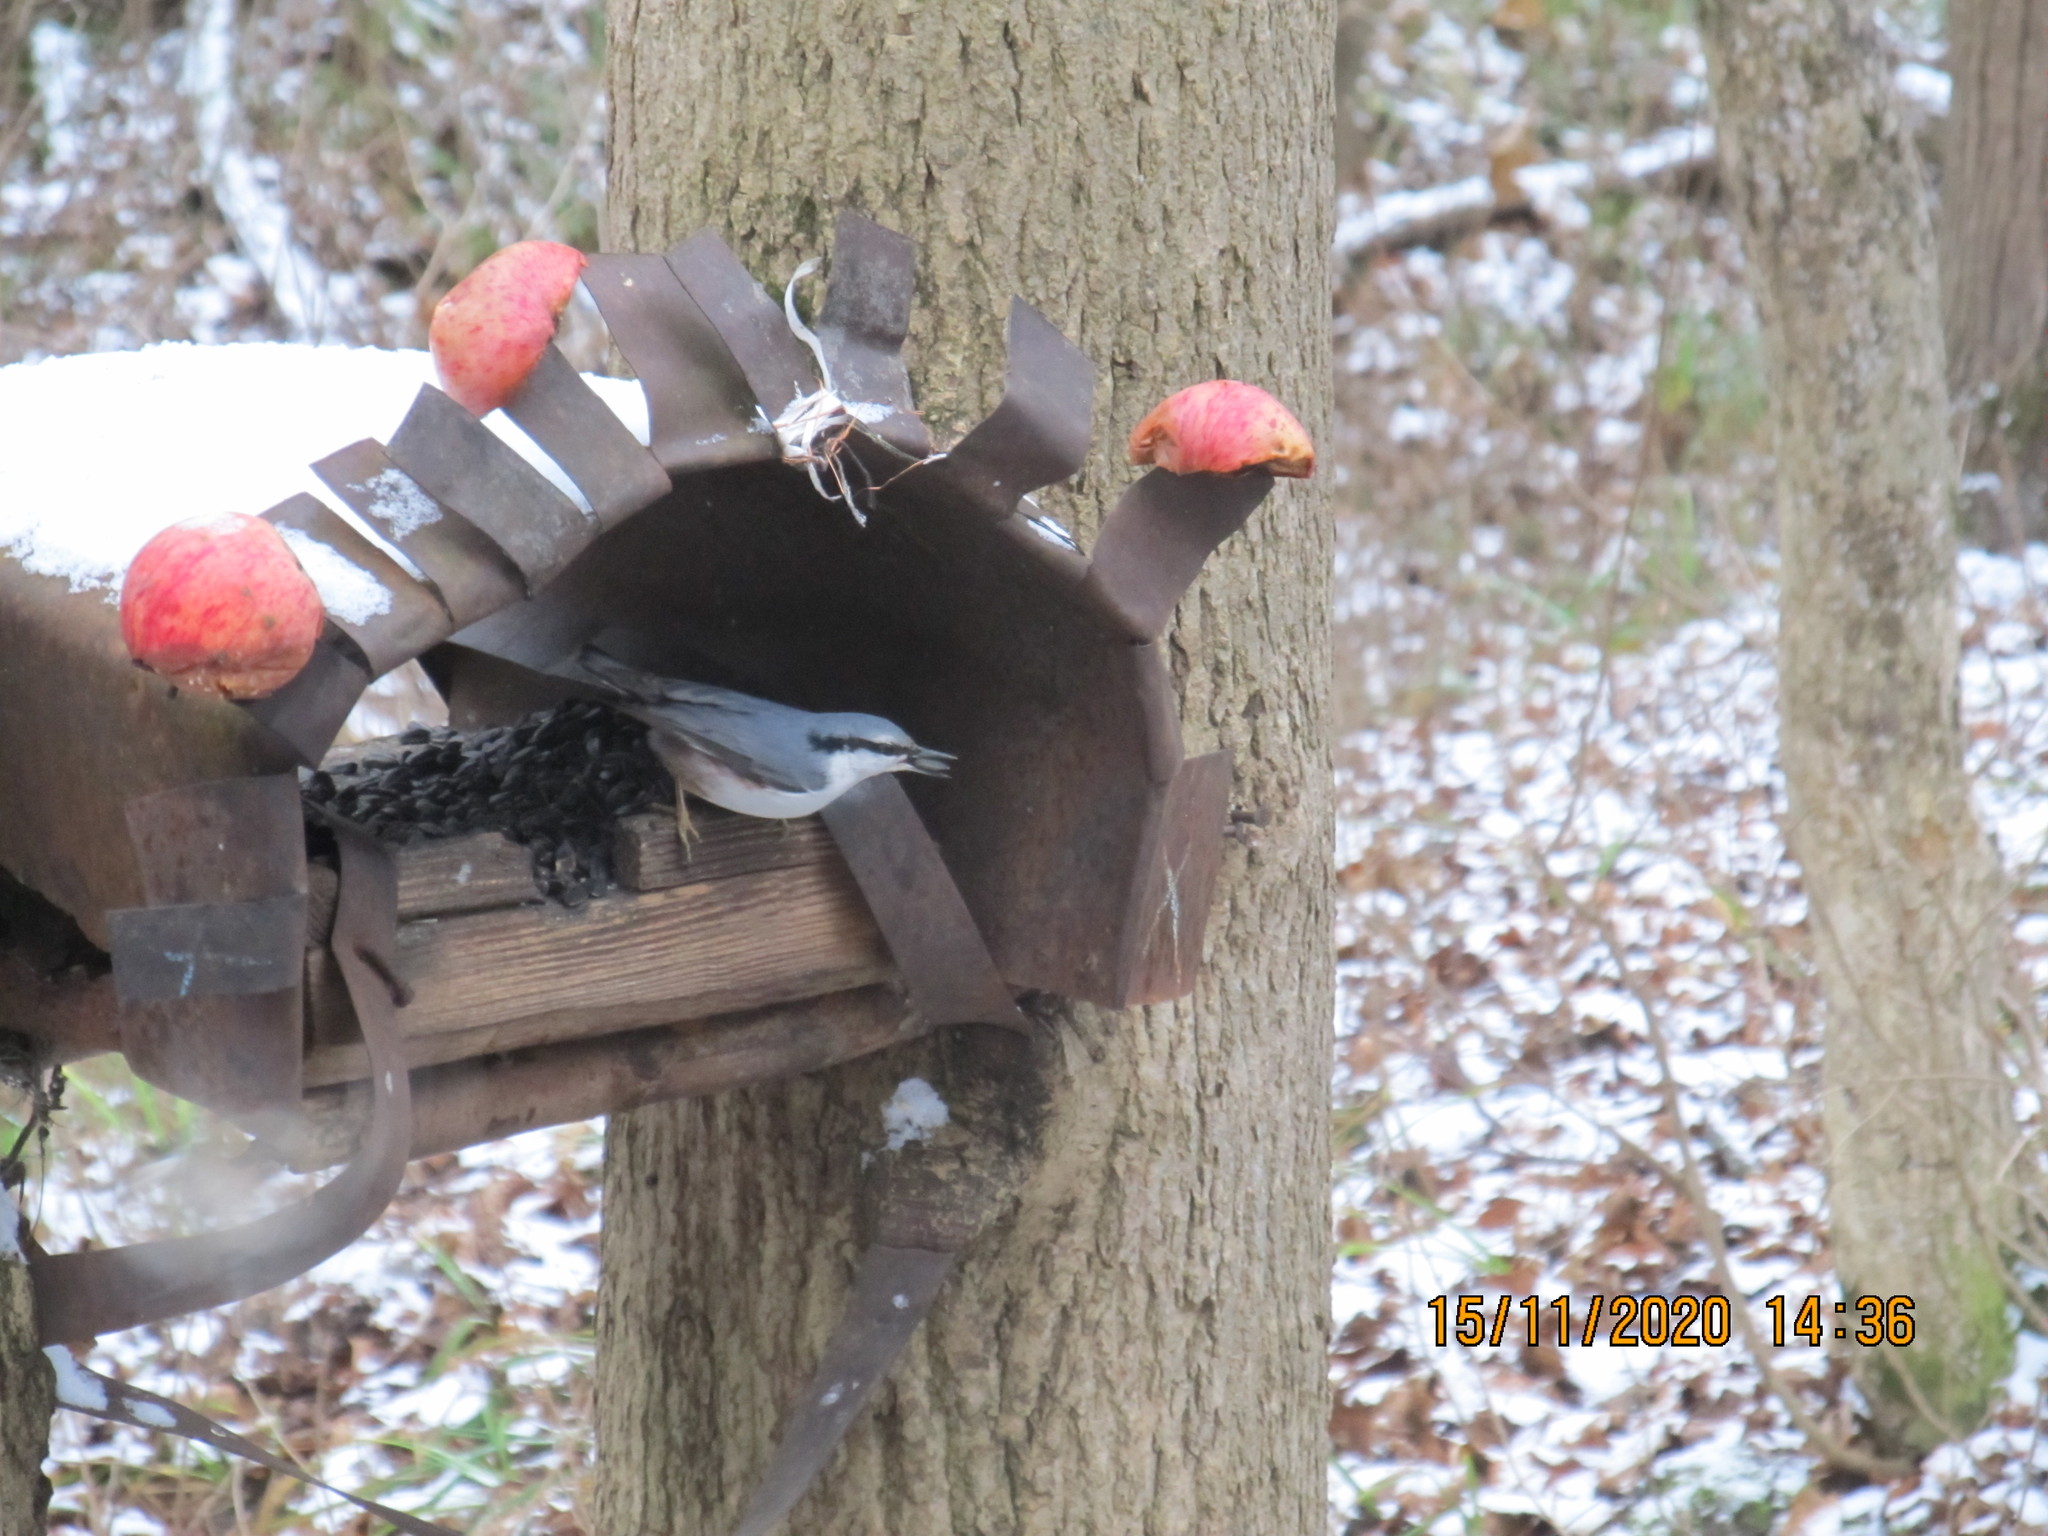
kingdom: Animalia
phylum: Chordata
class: Aves
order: Passeriformes
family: Sittidae
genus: Sitta
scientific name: Sitta europaea
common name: Eurasian nuthatch
